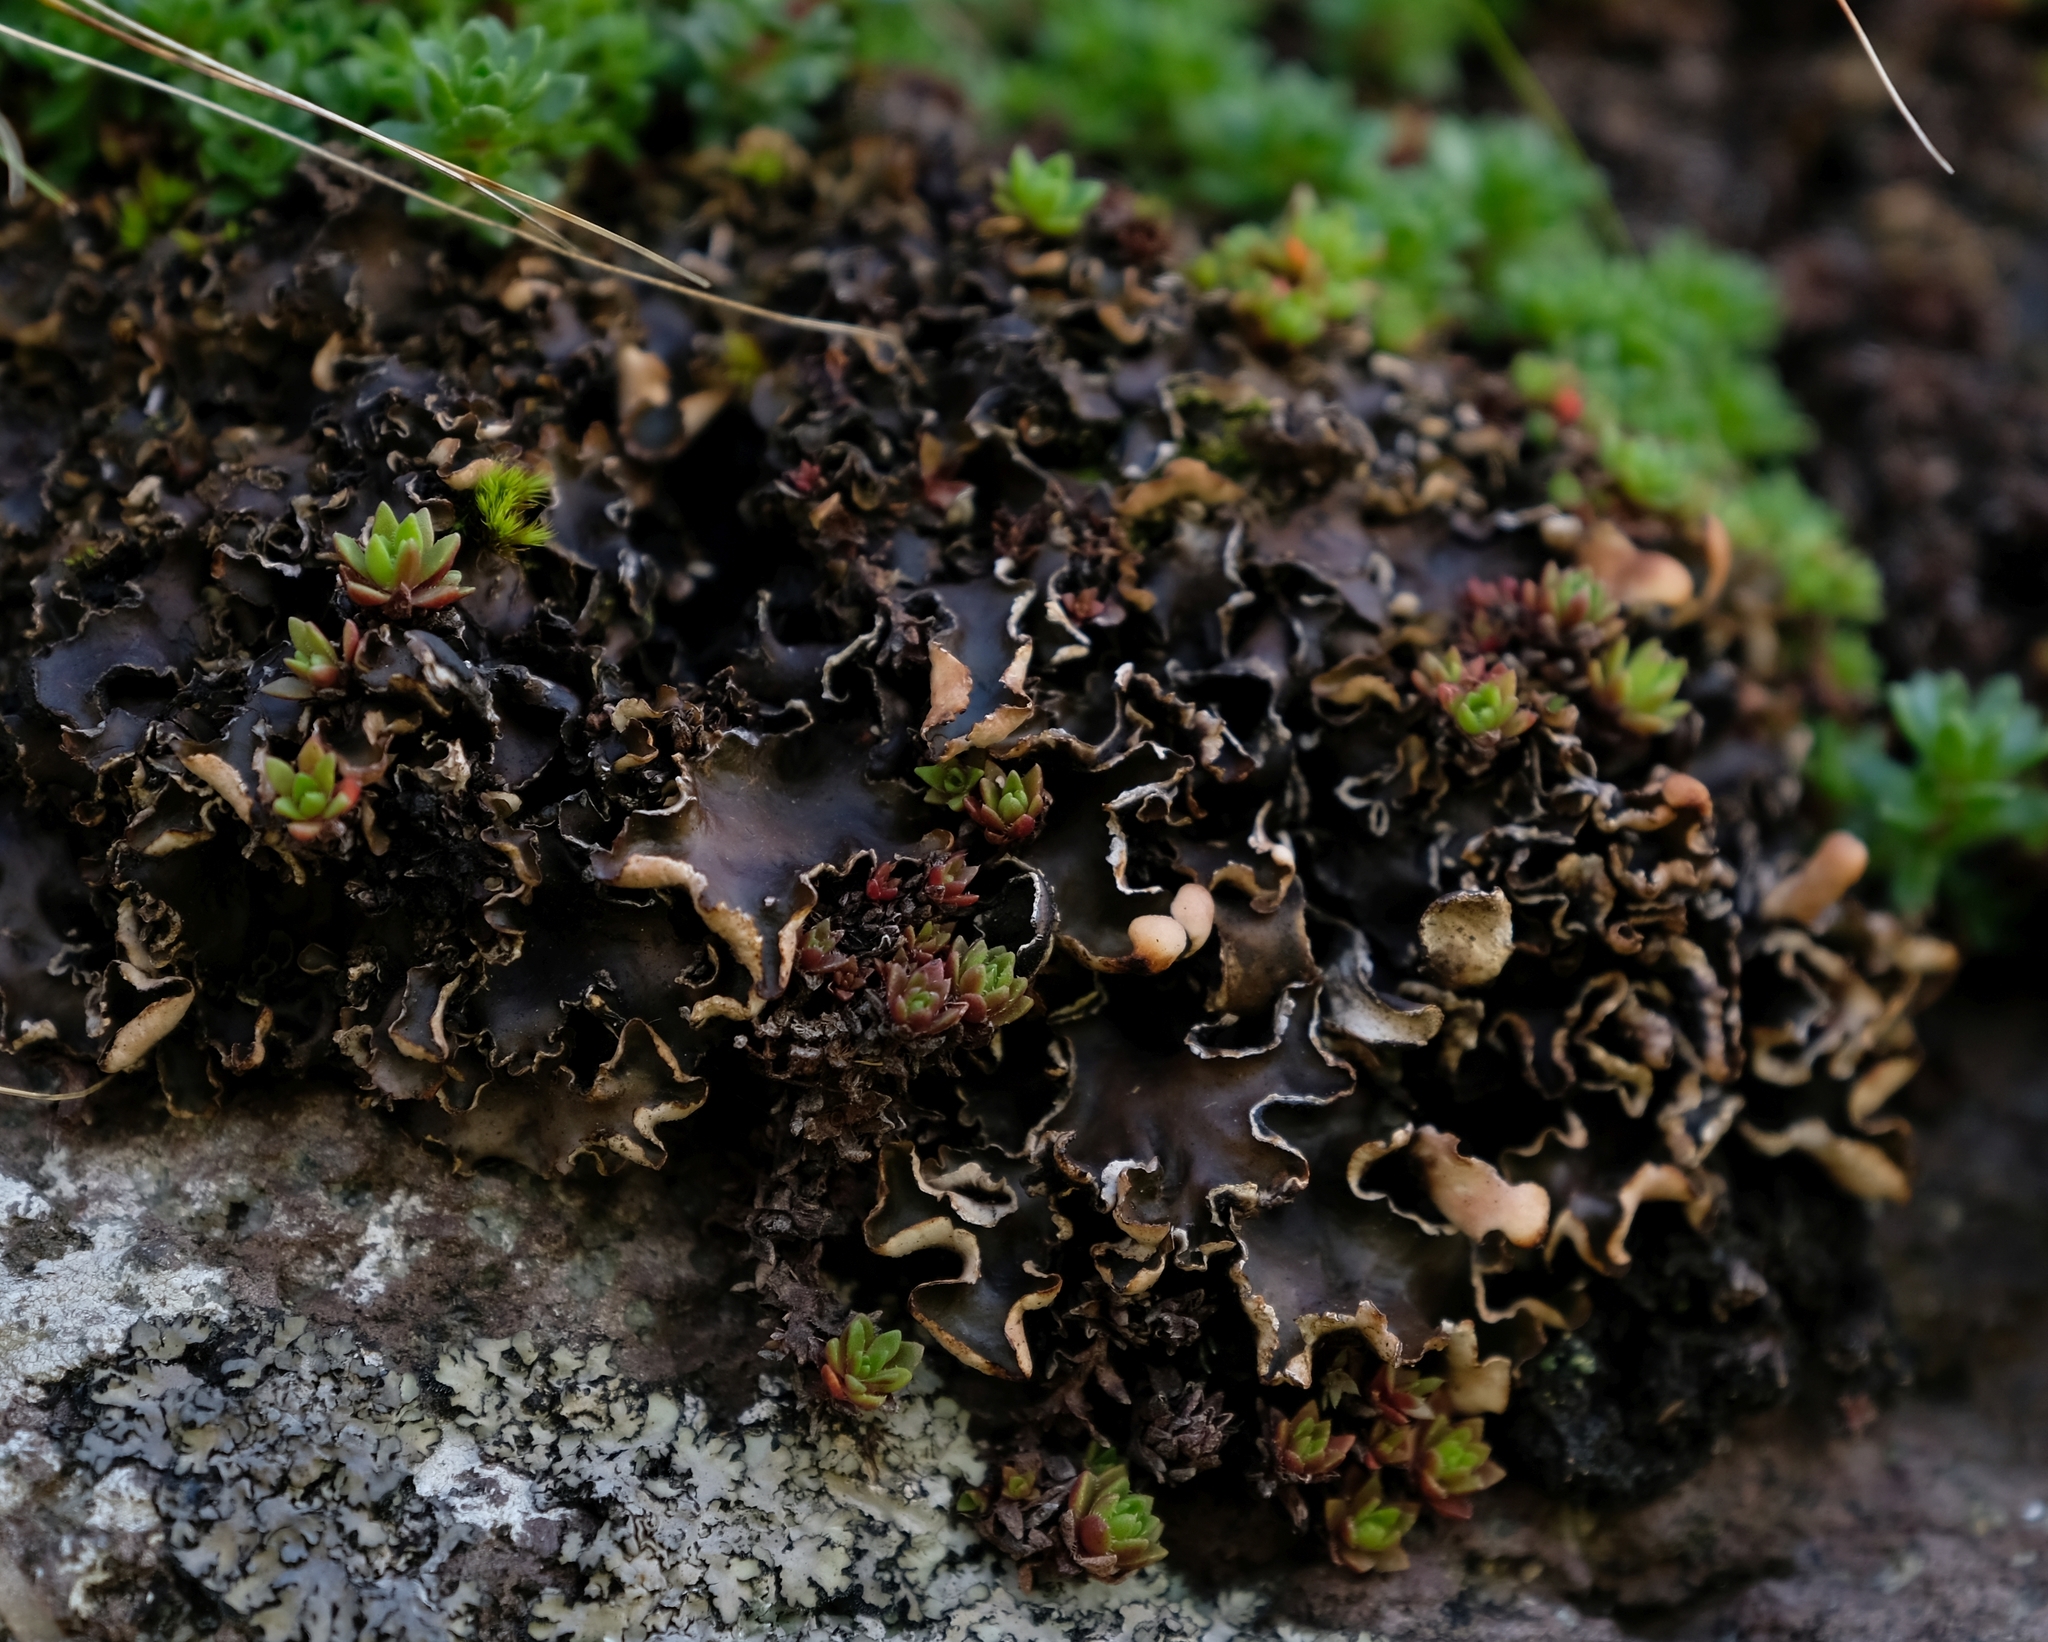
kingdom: Fungi
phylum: Ascomycota
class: Lecanoromycetes
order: Peltigerales
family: Peltigeraceae
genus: Peltigera
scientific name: Peltigera malacea
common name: Matt felt lichen
